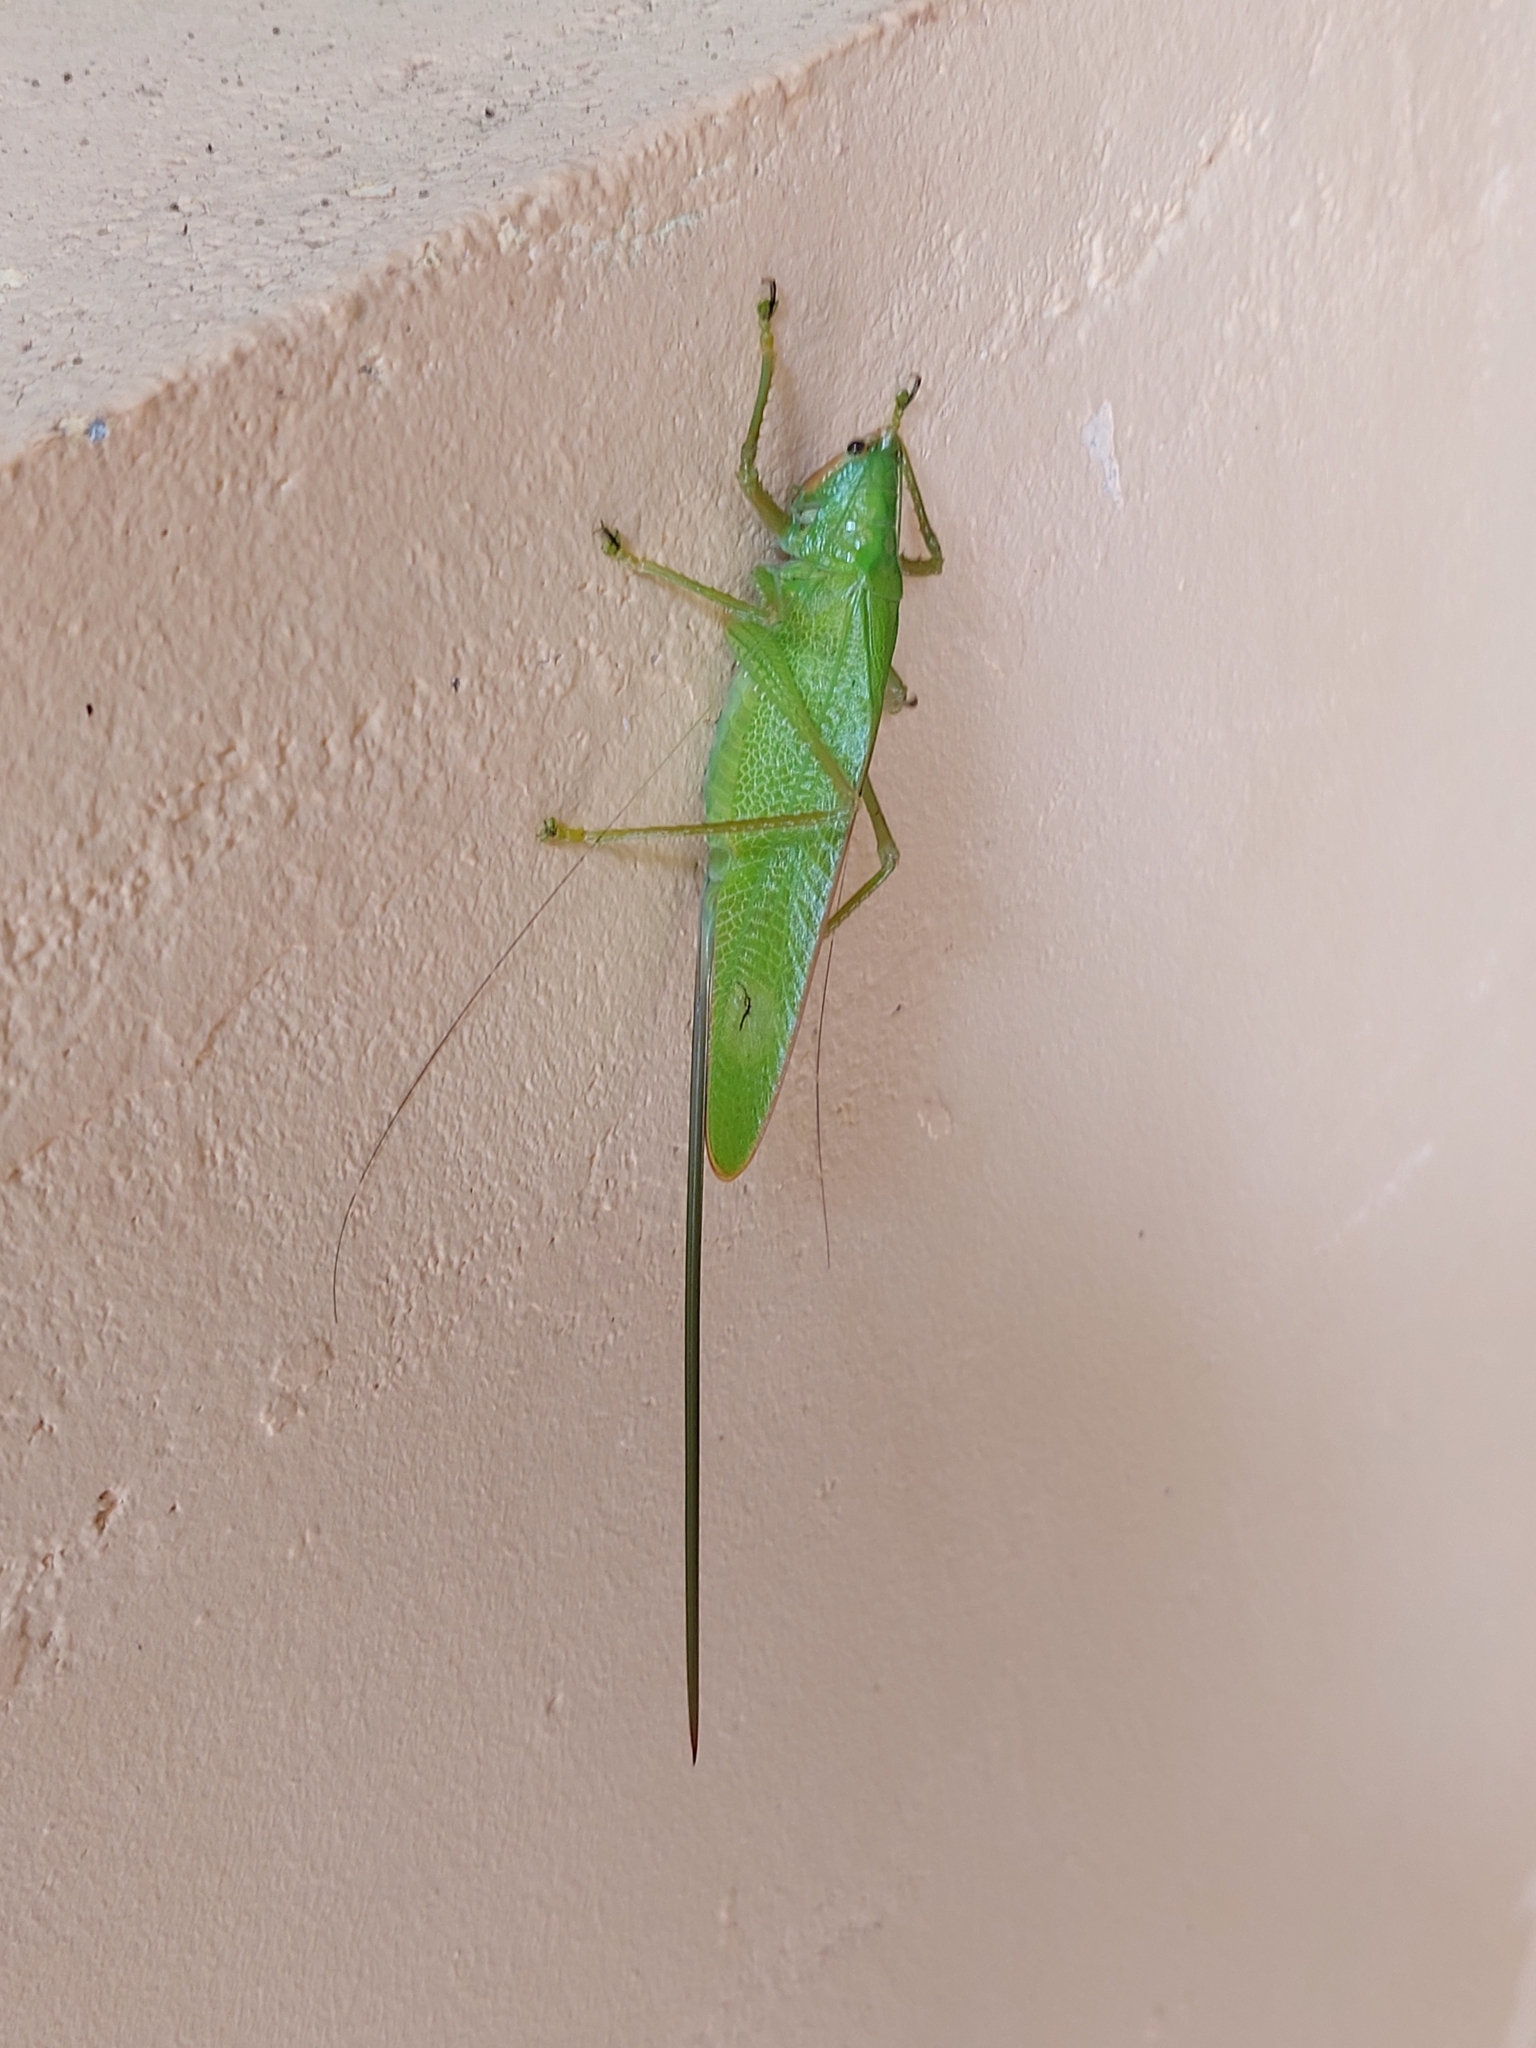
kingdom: Animalia
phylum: Arthropoda
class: Insecta
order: Orthoptera
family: Tettigoniidae
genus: Copiphora
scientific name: Copiphora brevirostris
